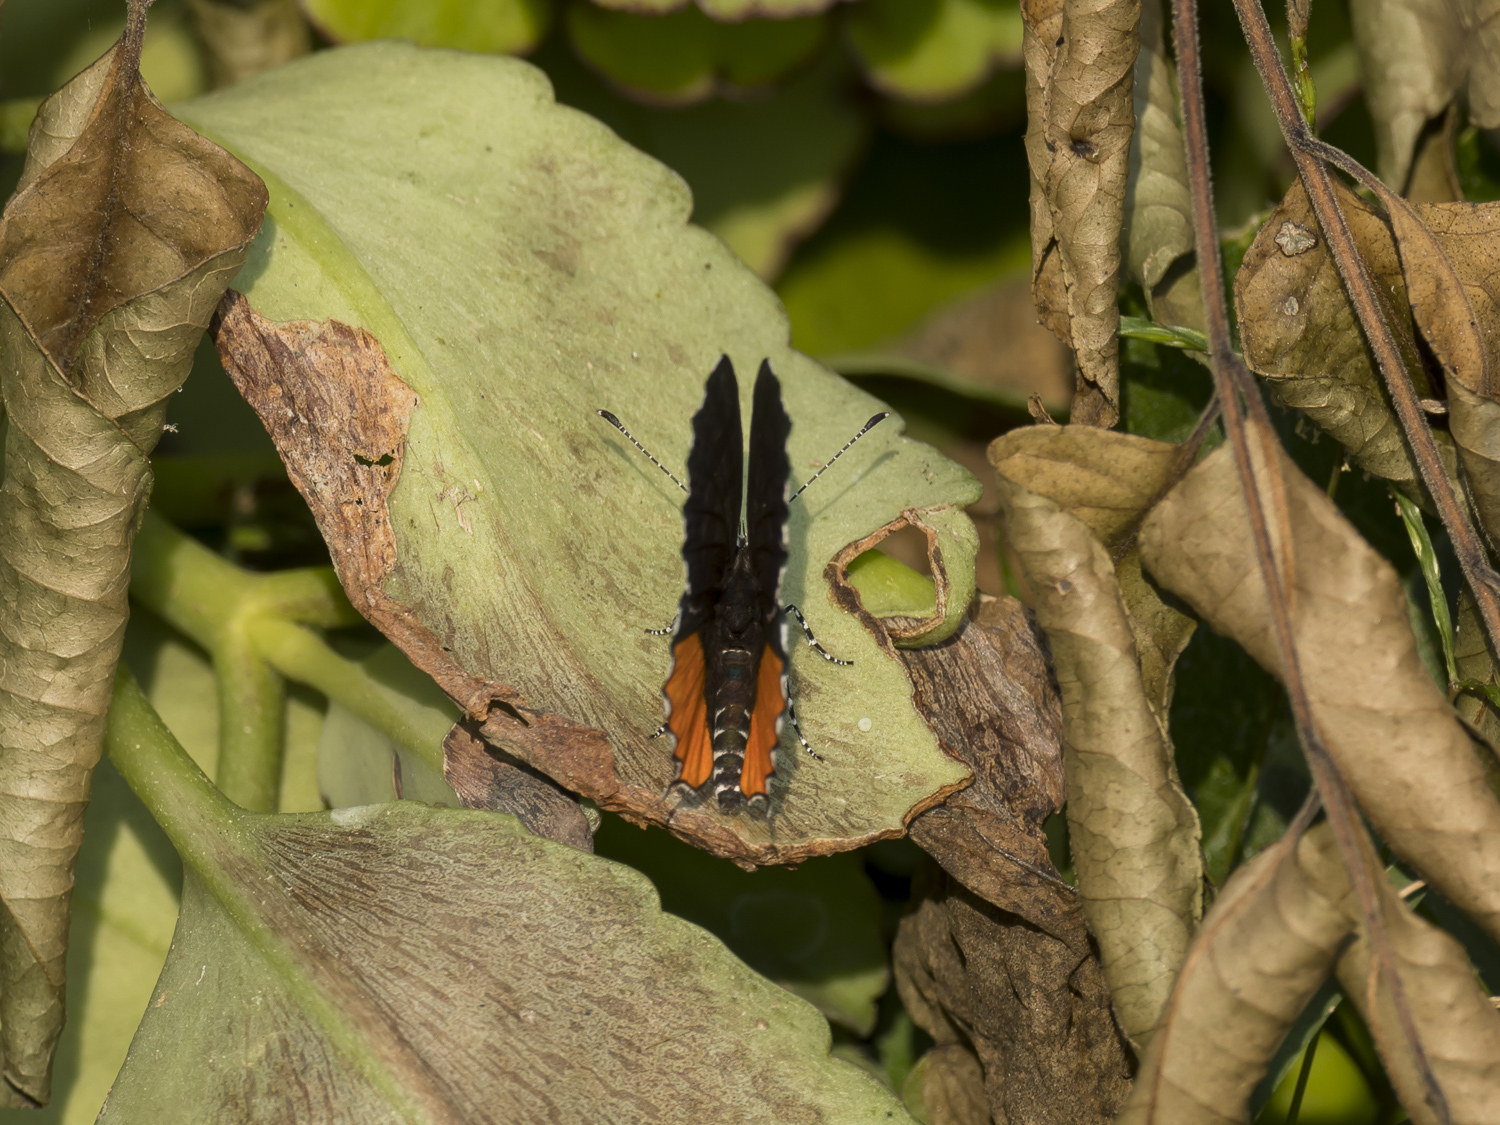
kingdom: Animalia
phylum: Arthropoda
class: Insecta
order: Lepidoptera
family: Lycaenidae
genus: Talicada
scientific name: Talicada nyseus
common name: Red pierrot
